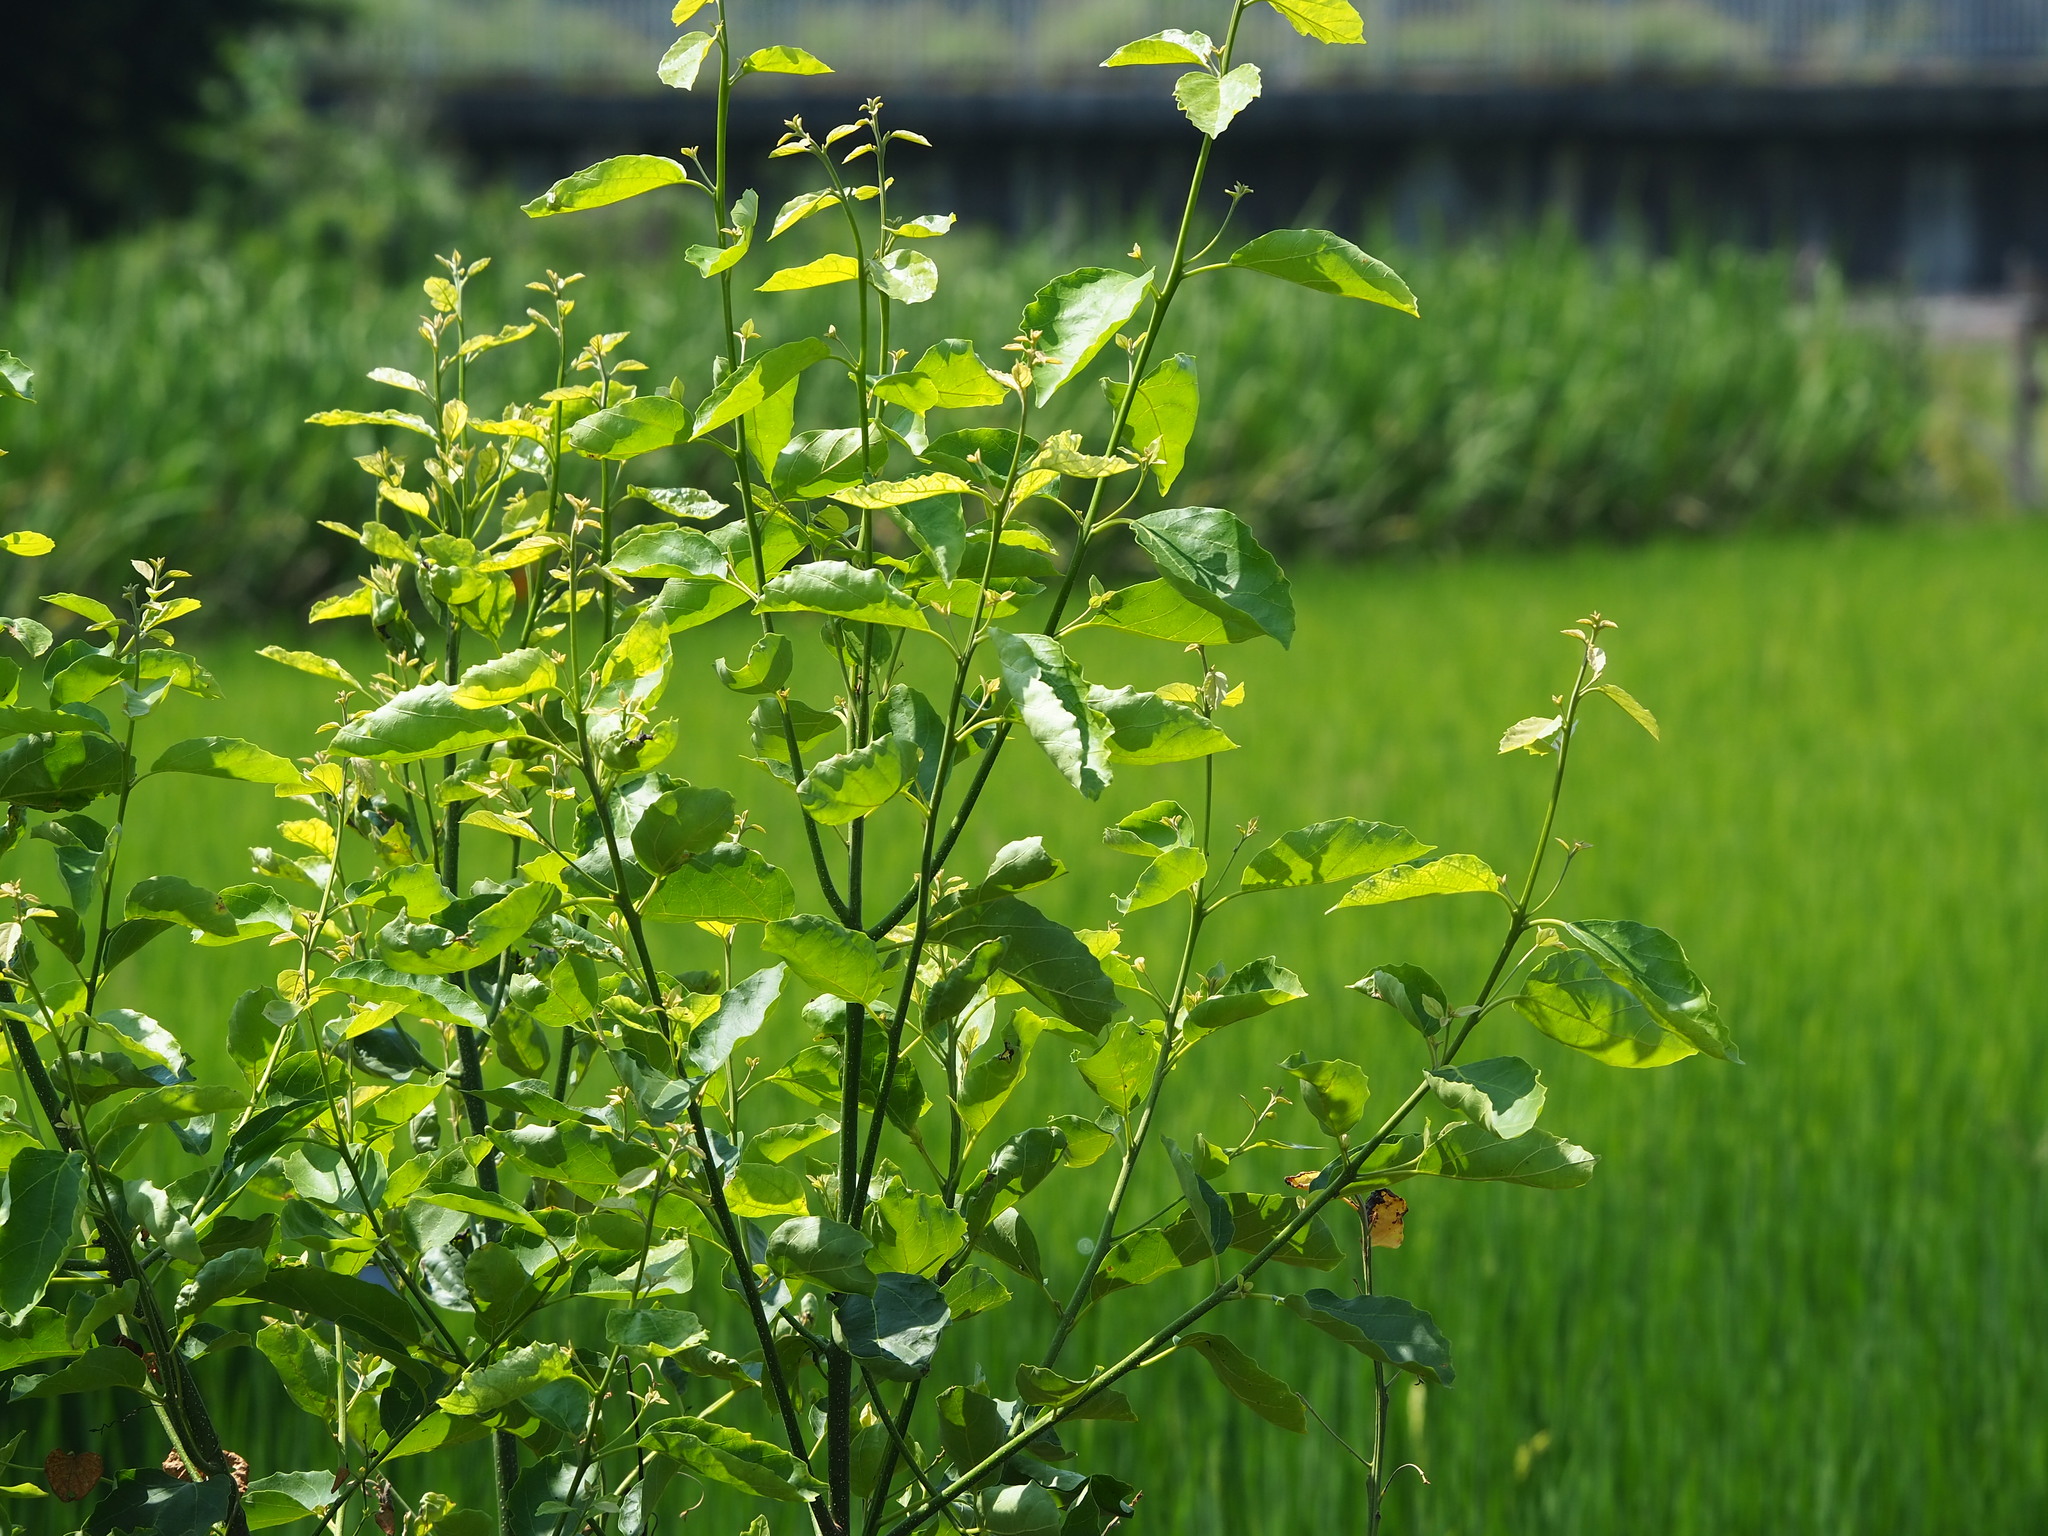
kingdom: Plantae
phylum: Tracheophyta
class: Magnoliopsida
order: Boraginales
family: Cordiaceae
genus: Cordia
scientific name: Cordia dichotoma
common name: Fragrant manjack
